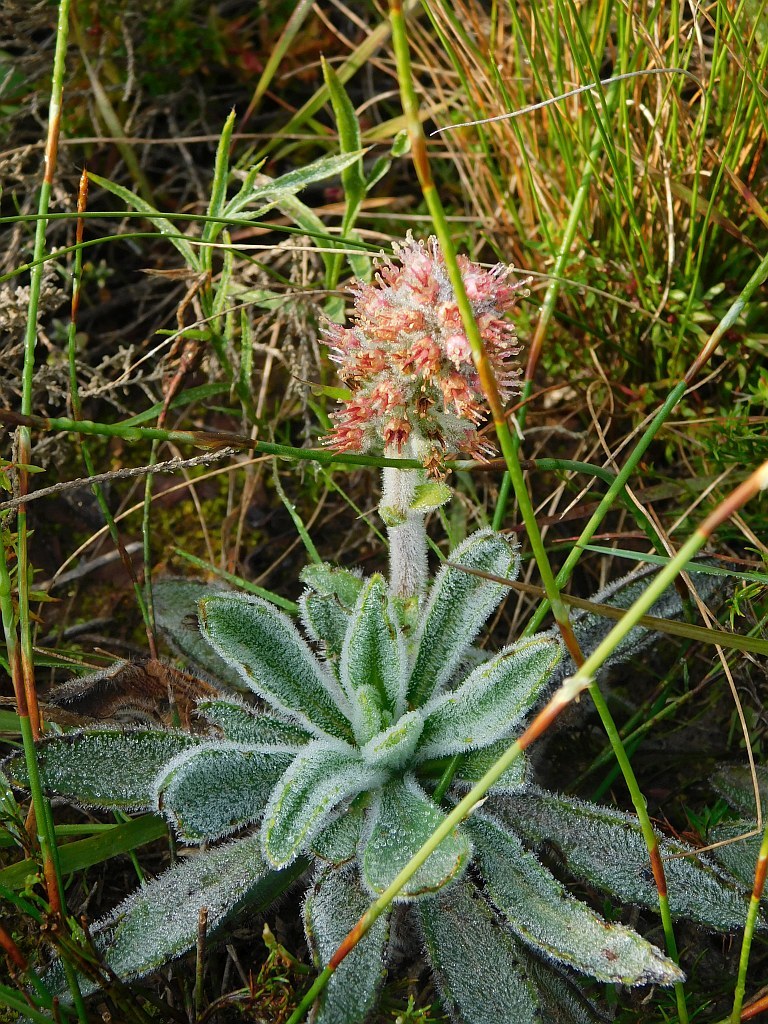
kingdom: Plantae
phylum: Tracheophyta
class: Magnoliopsida
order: Boraginales
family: Boraginaceae
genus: Lobostemon
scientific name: Lobostemon ecklonianus
